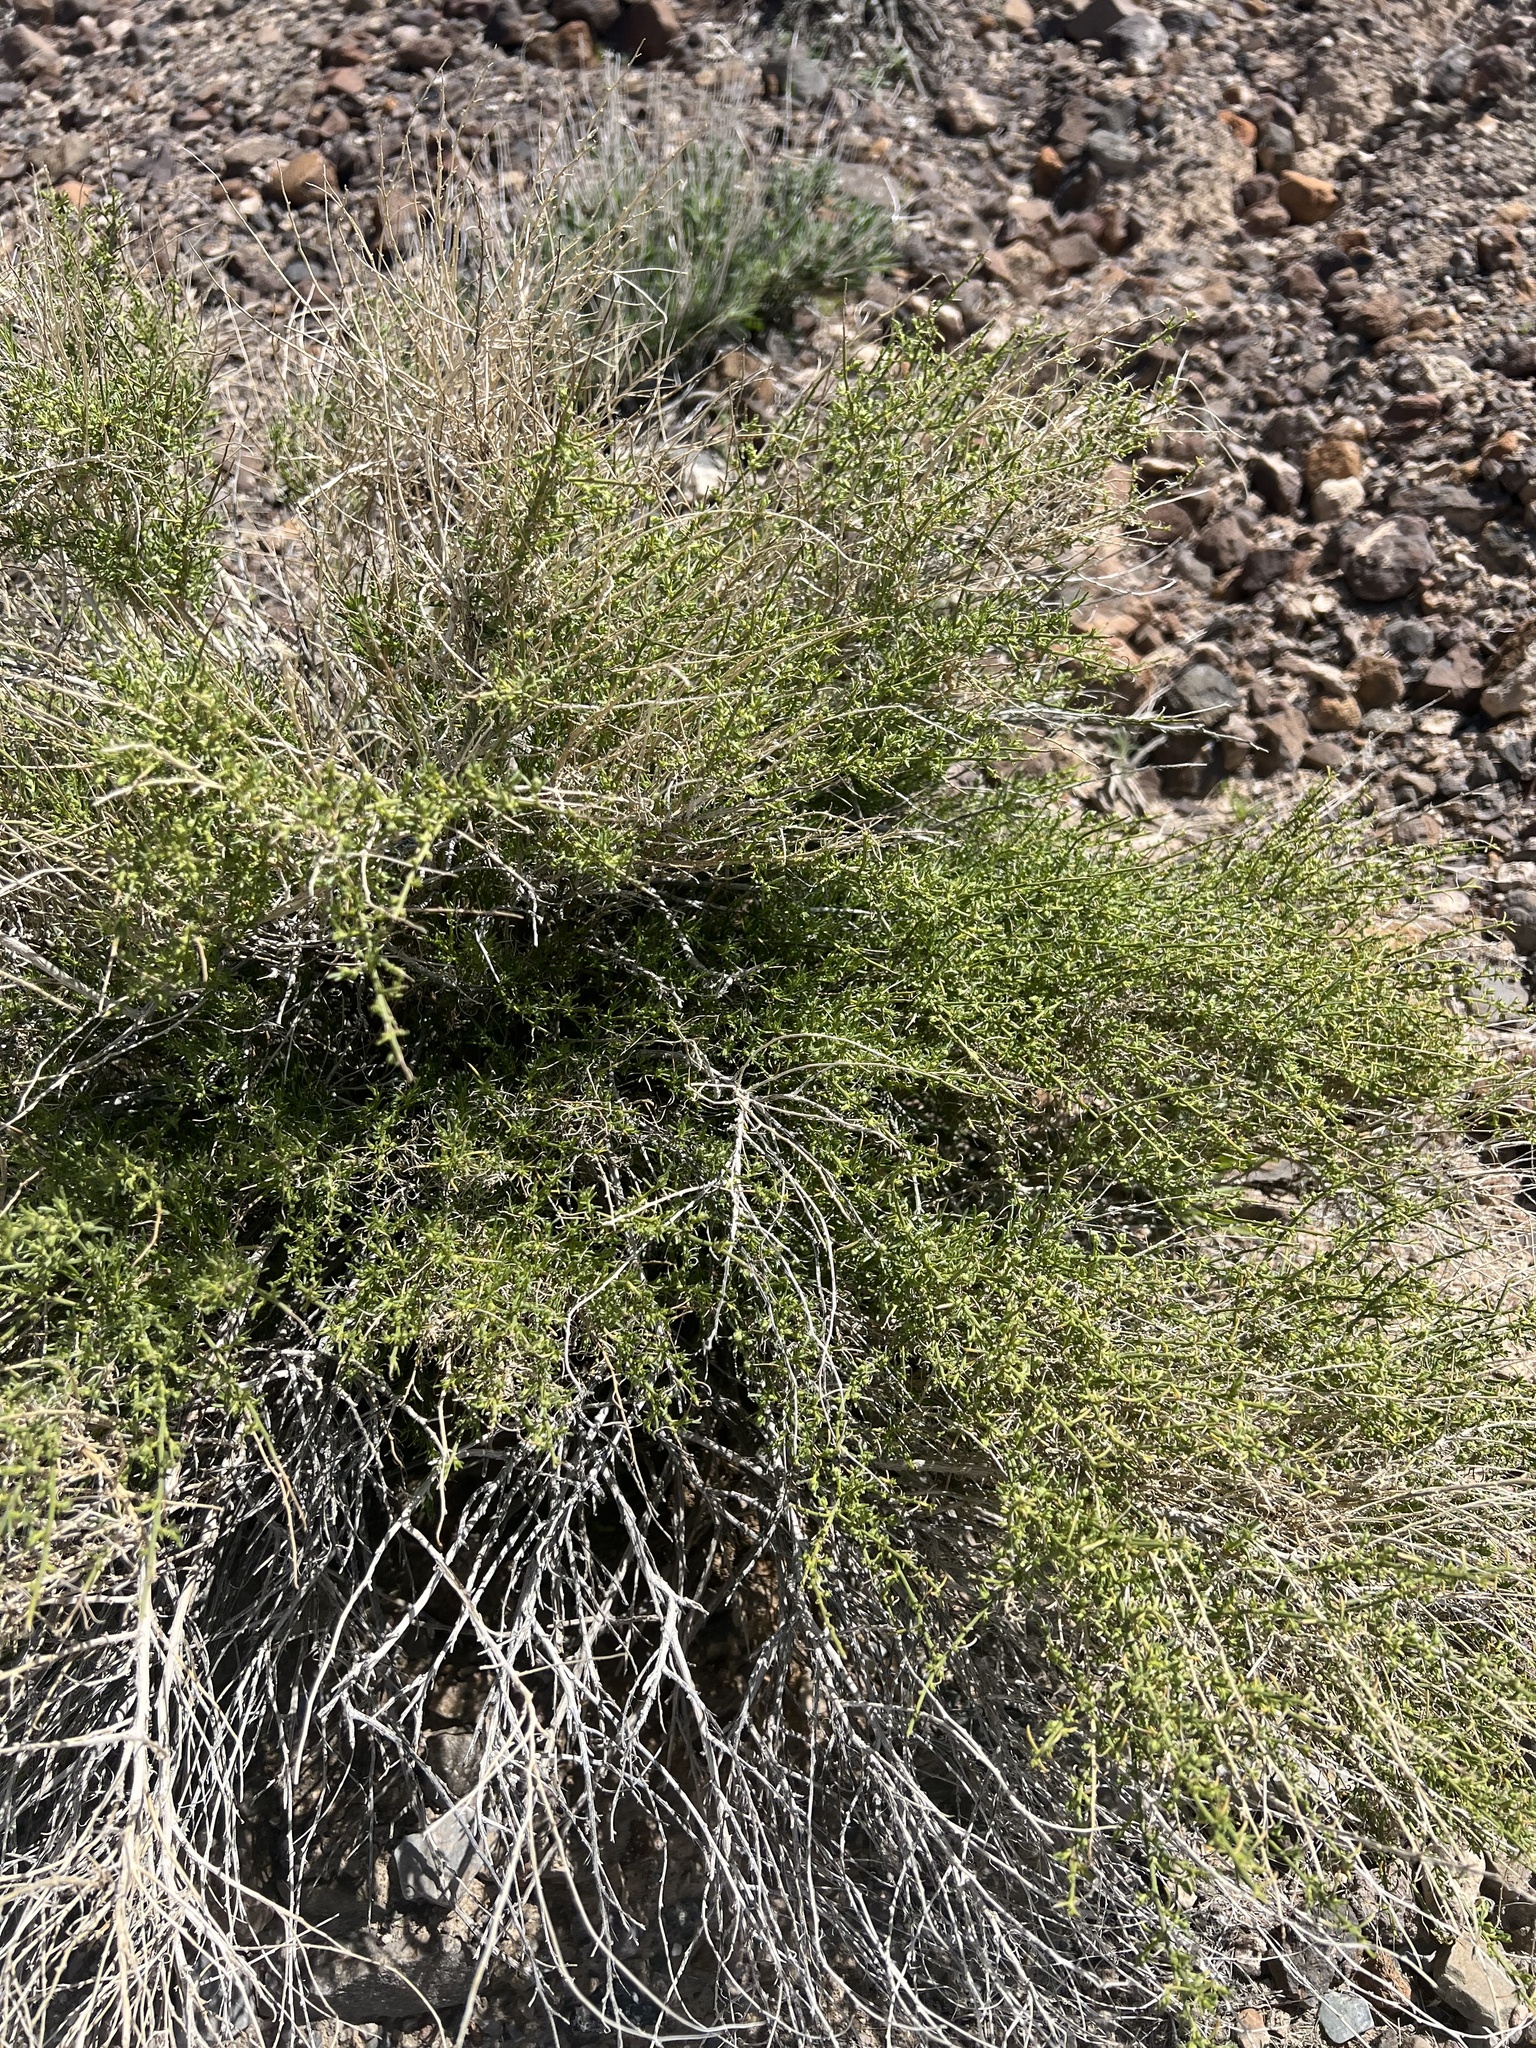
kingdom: Plantae
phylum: Tracheophyta
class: Magnoliopsida
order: Asterales
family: Asteraceae
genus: Ambrosia
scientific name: Ambrosia salsola
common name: Burrobrush
